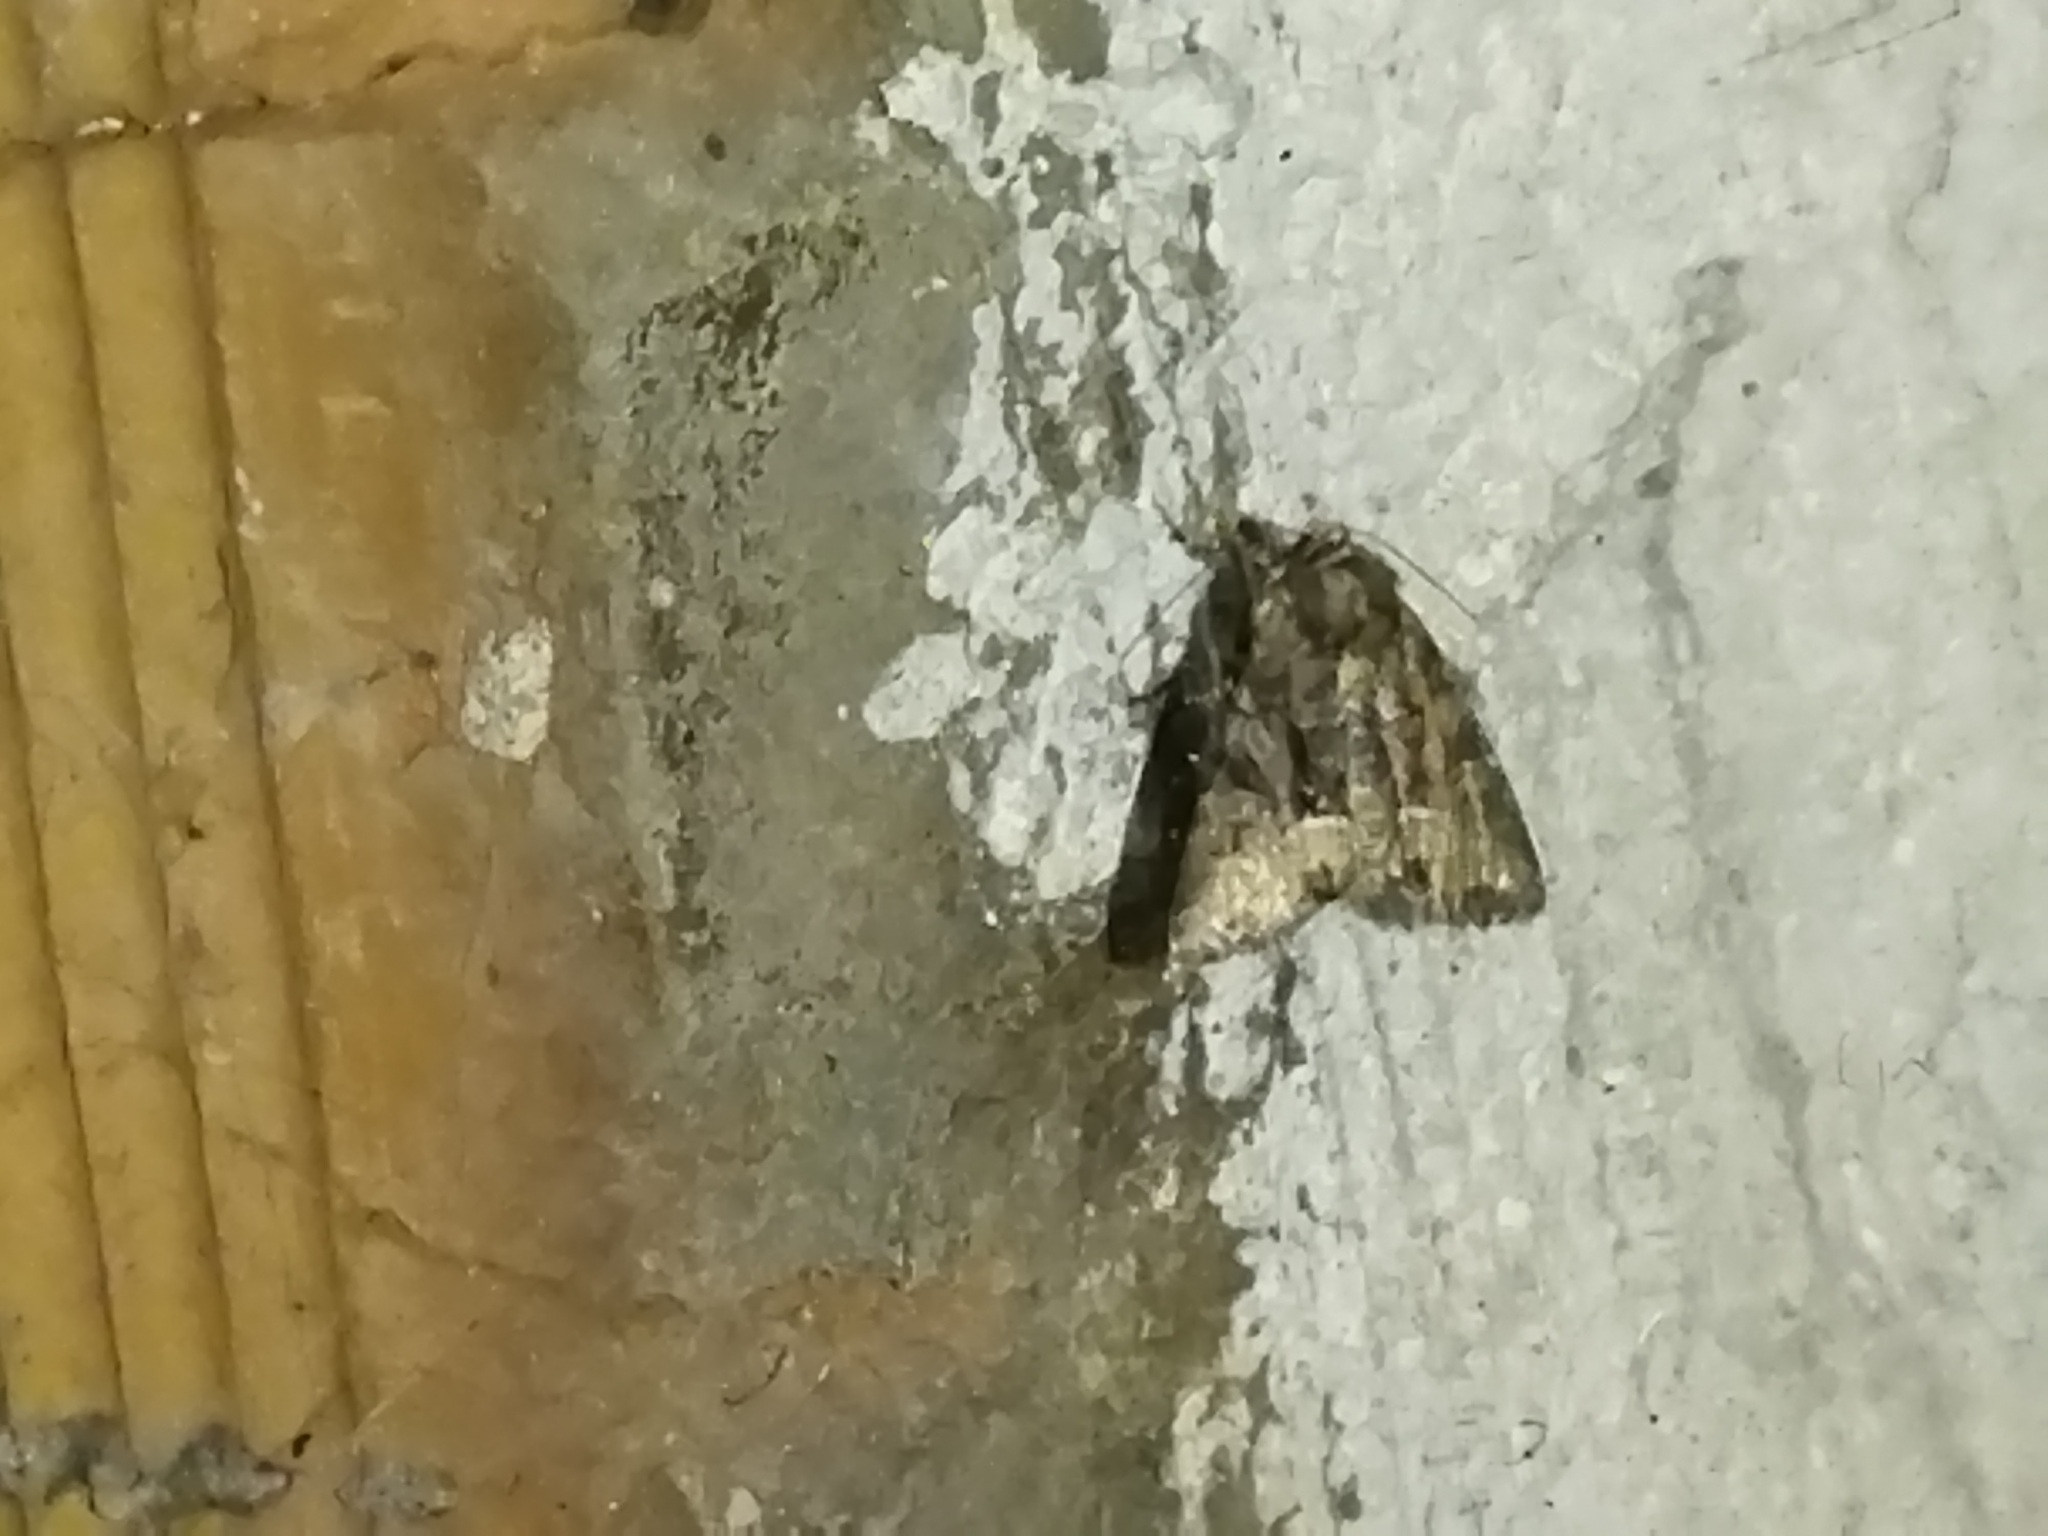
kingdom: Animalia
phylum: Arthropoda
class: Insecta
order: Lepidoptera
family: Noctuidae
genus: Oligia
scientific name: Oligia
